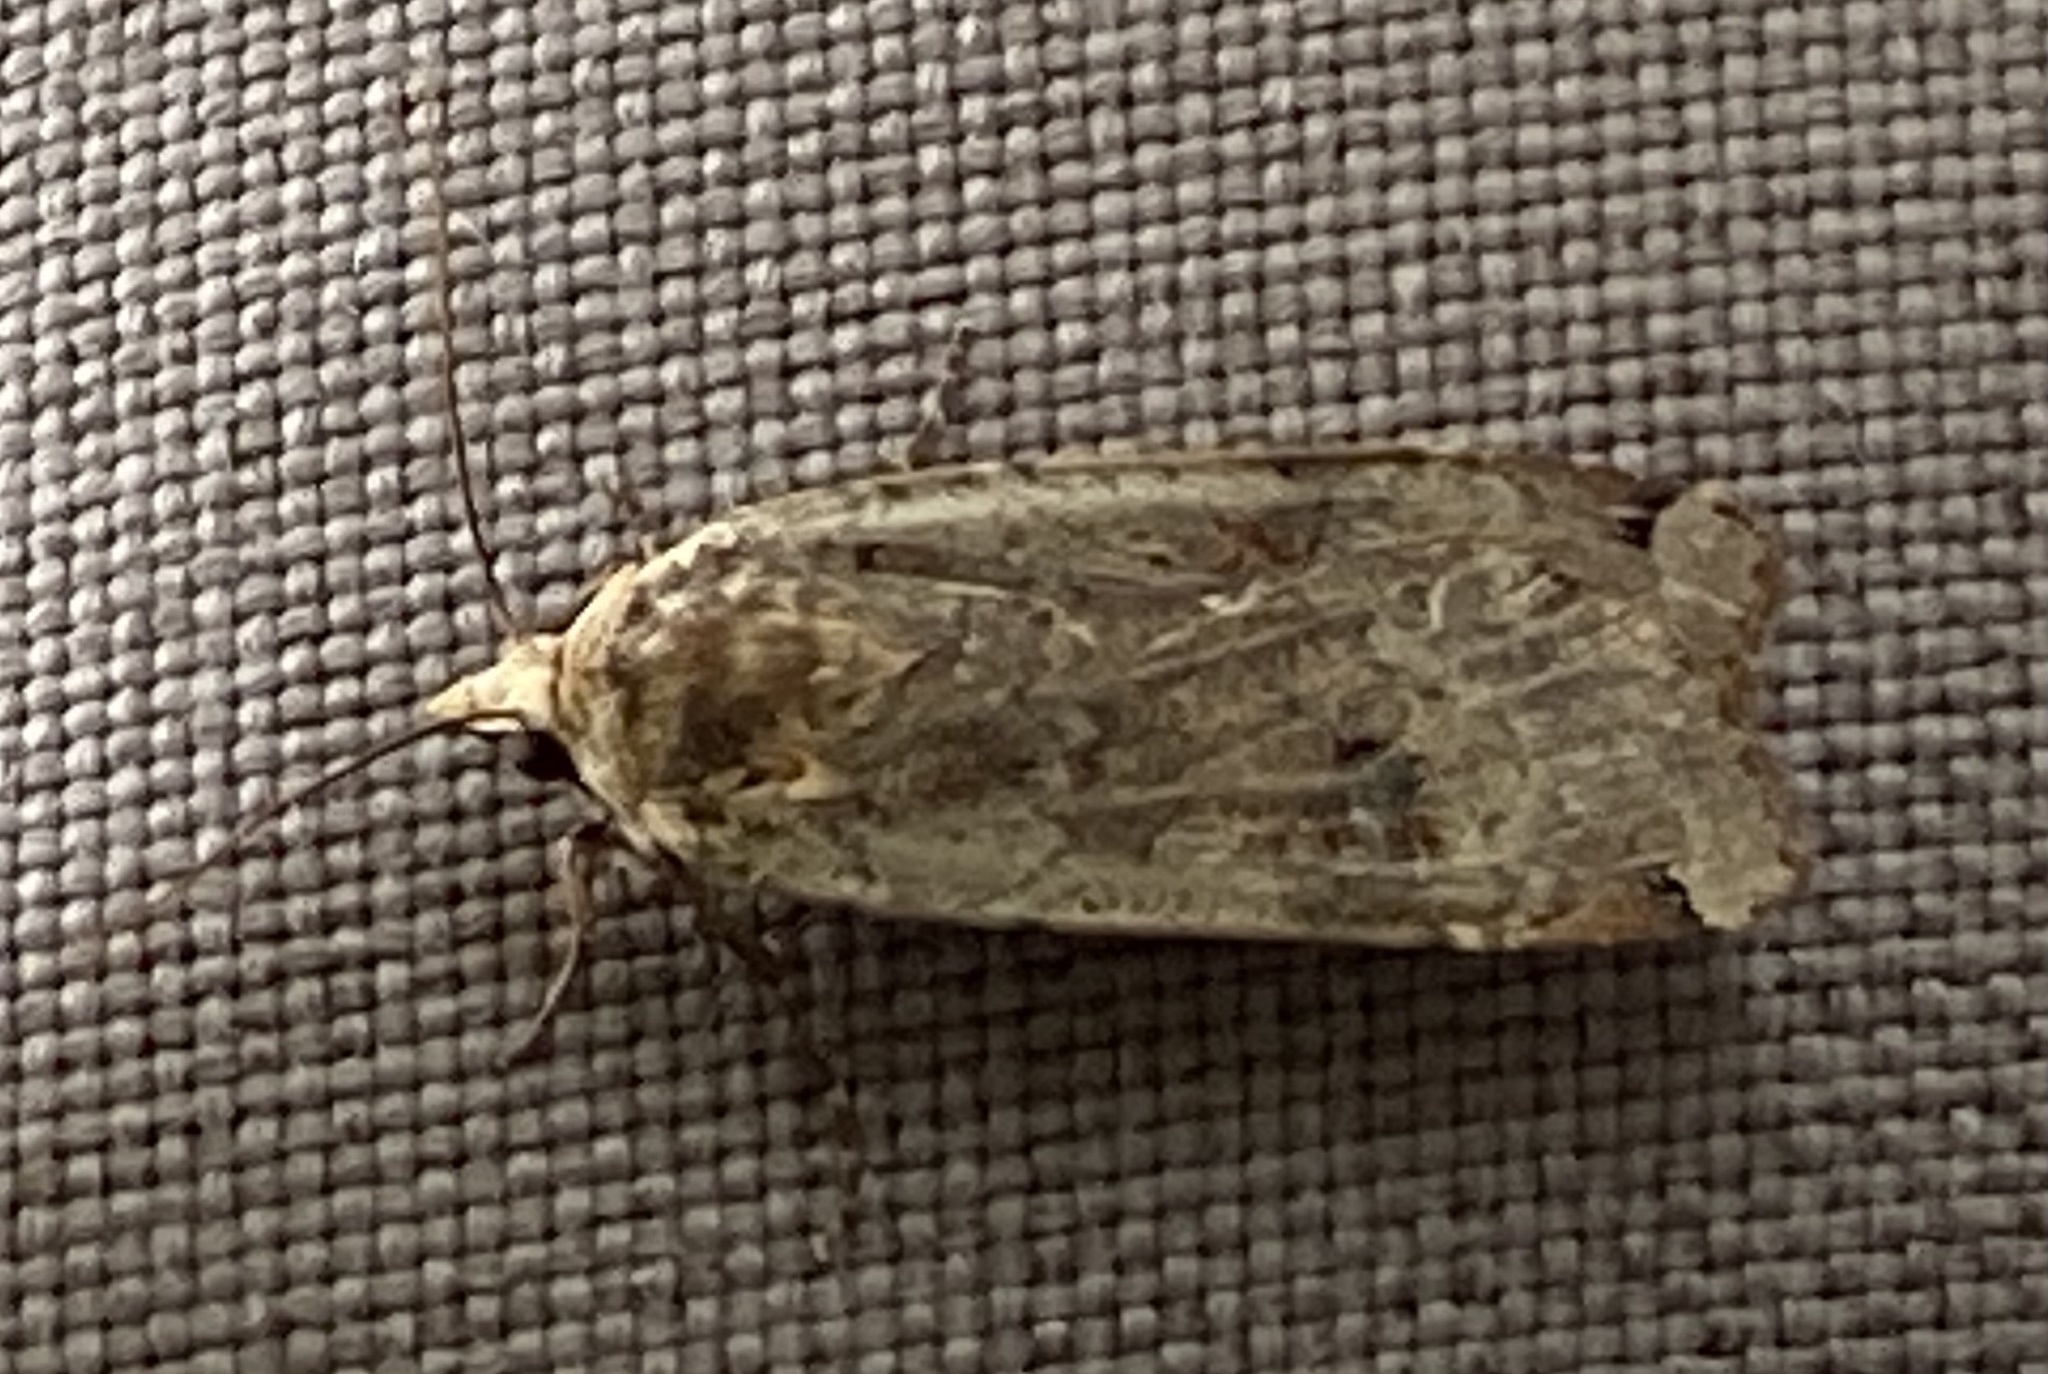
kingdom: Animalia
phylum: Arthropoda
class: Insecta
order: Lepidoptera
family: Noctuidae
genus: Noctua
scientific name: Noctua pronuba
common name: Large yellow underwing
